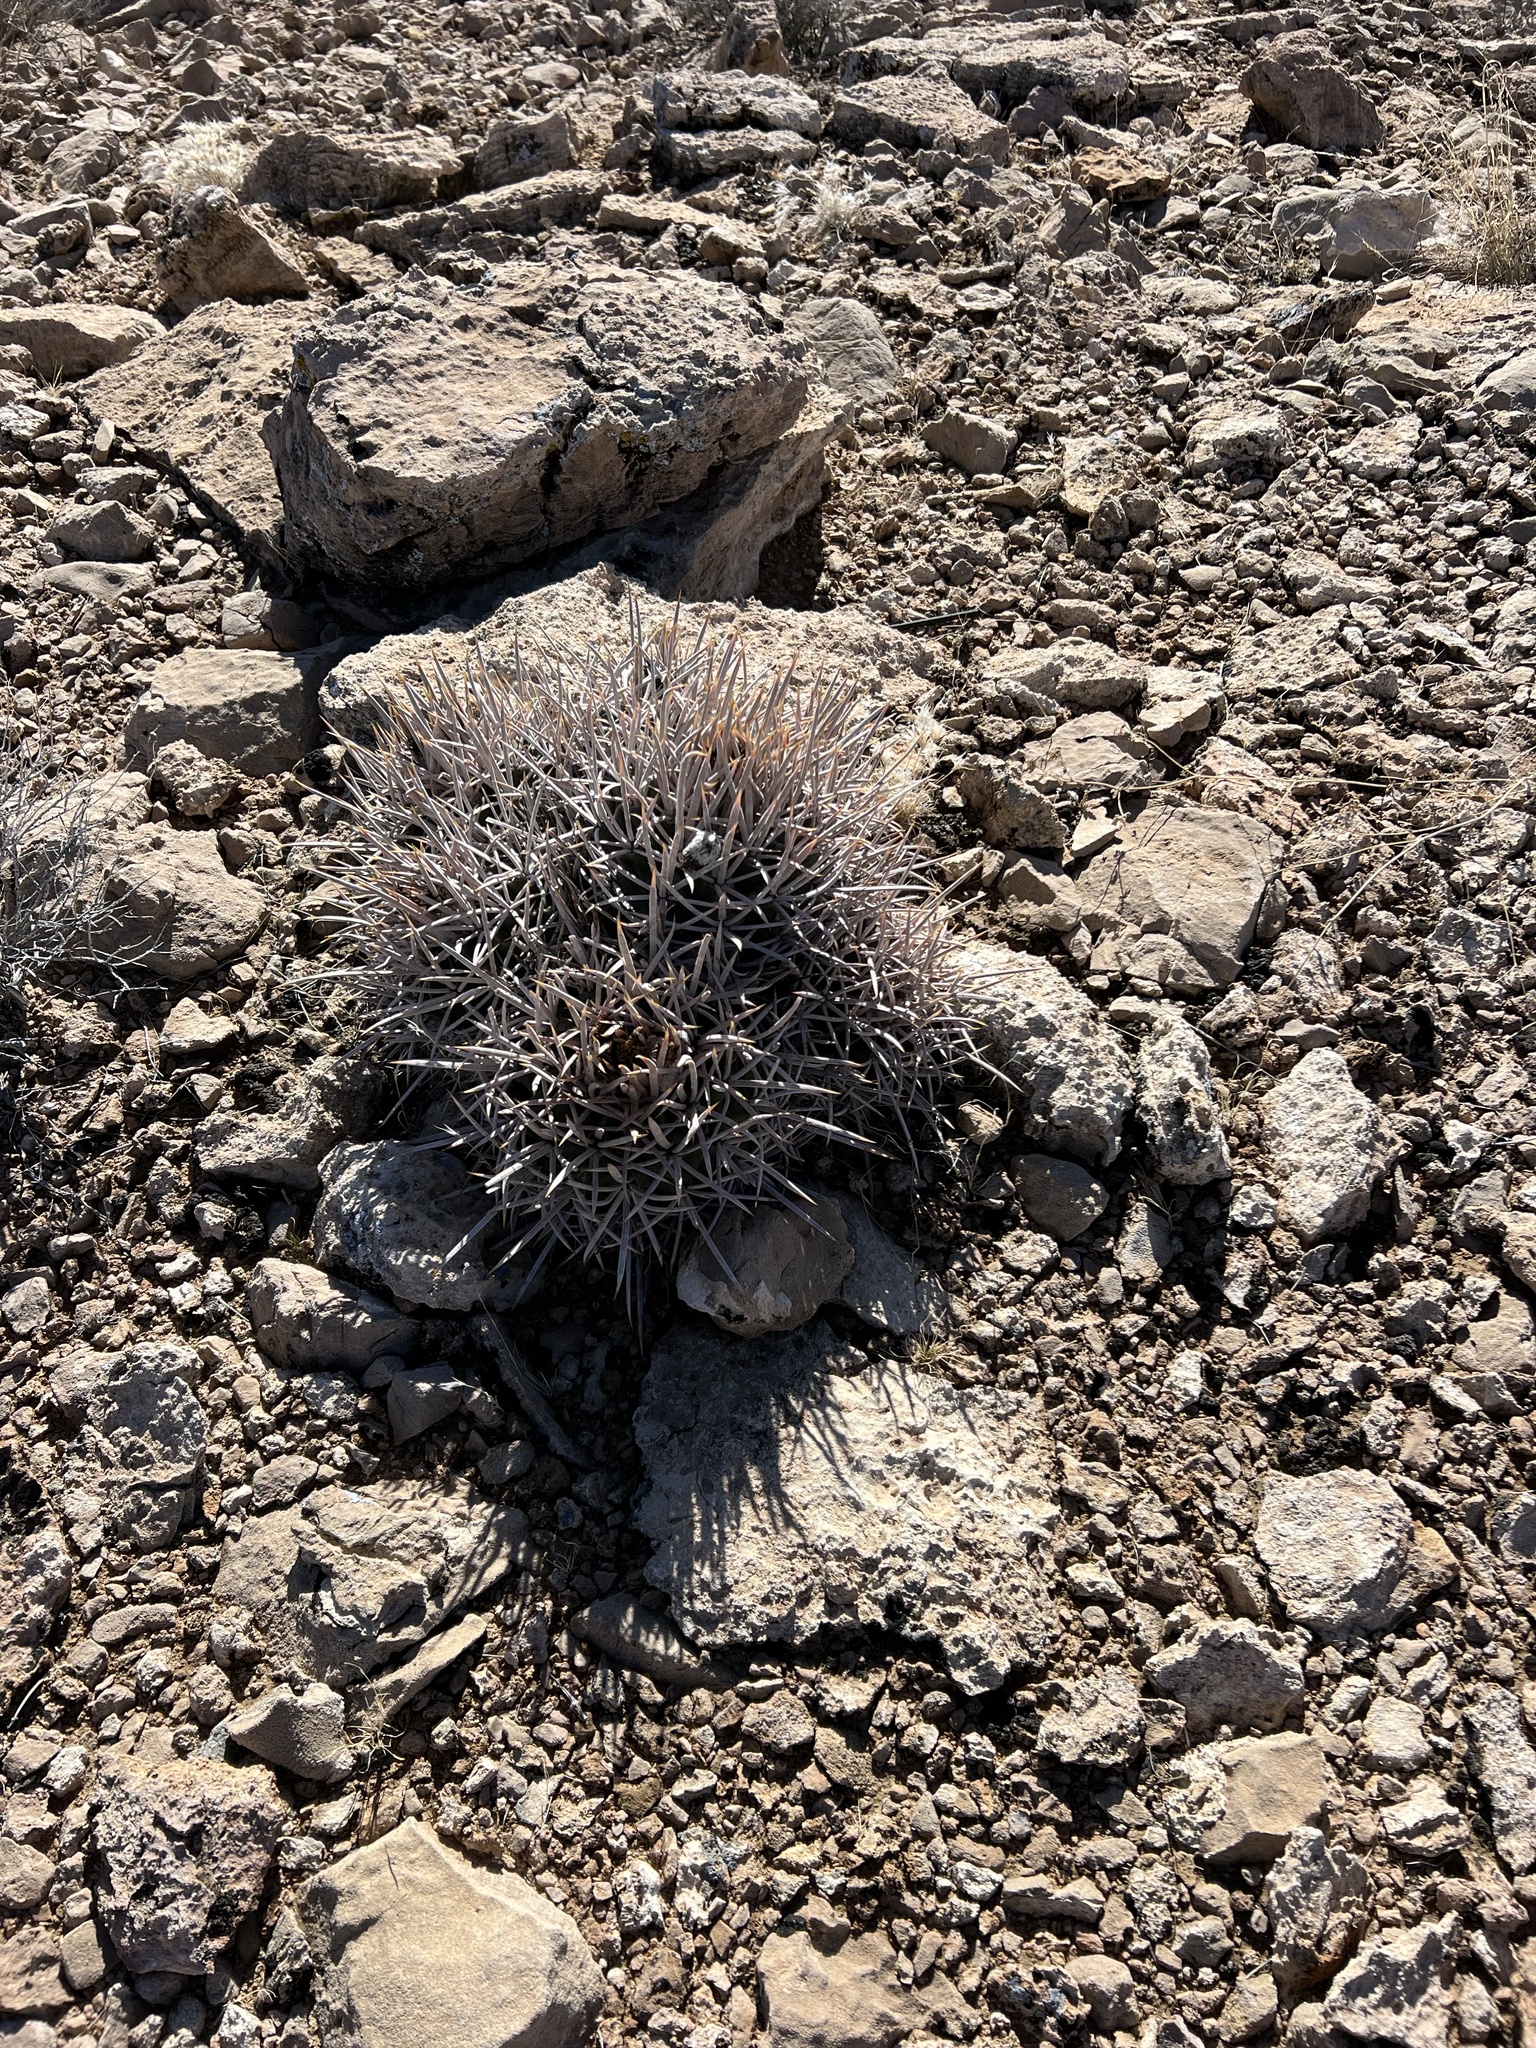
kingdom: Plantae
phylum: Tracheophyta
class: Magnoliopsida
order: Caryophyllales
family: Cactaceae
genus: Echinocactus
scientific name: Echinocactus polycephalus
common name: Cottontop cactus
